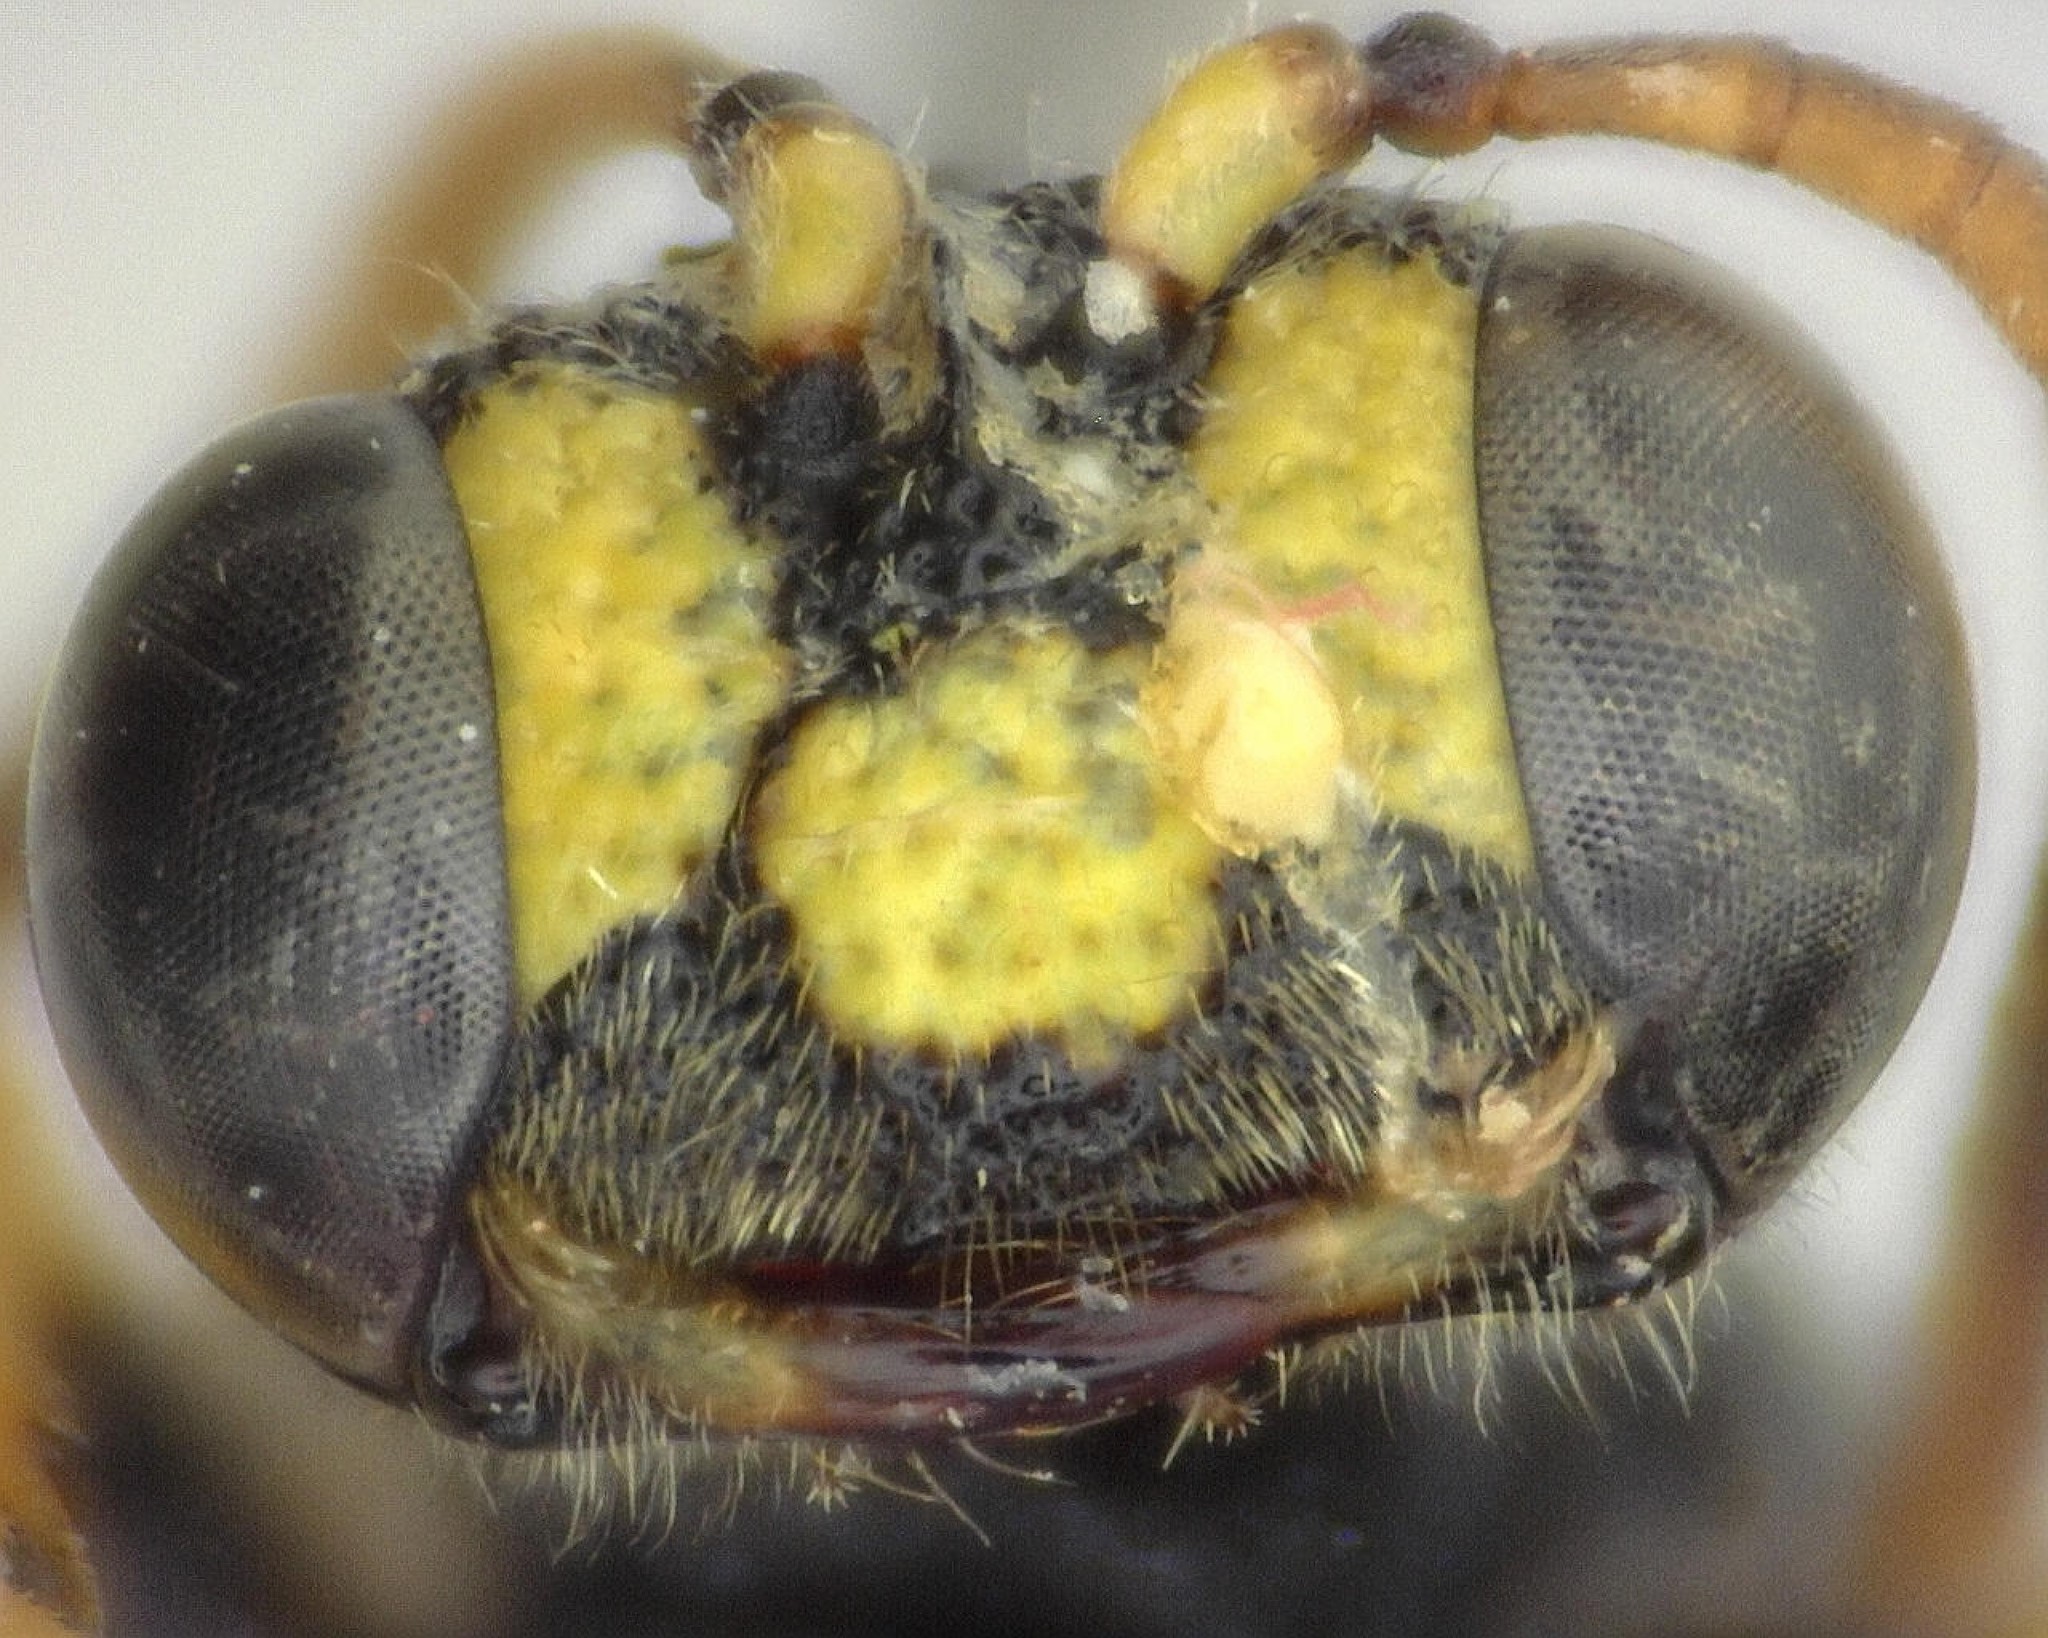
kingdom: Animalia
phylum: Arthropoda
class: Insecta
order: Hymenoptera
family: Crabronidae
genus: Cerceris
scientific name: Cerceris kennicottii
